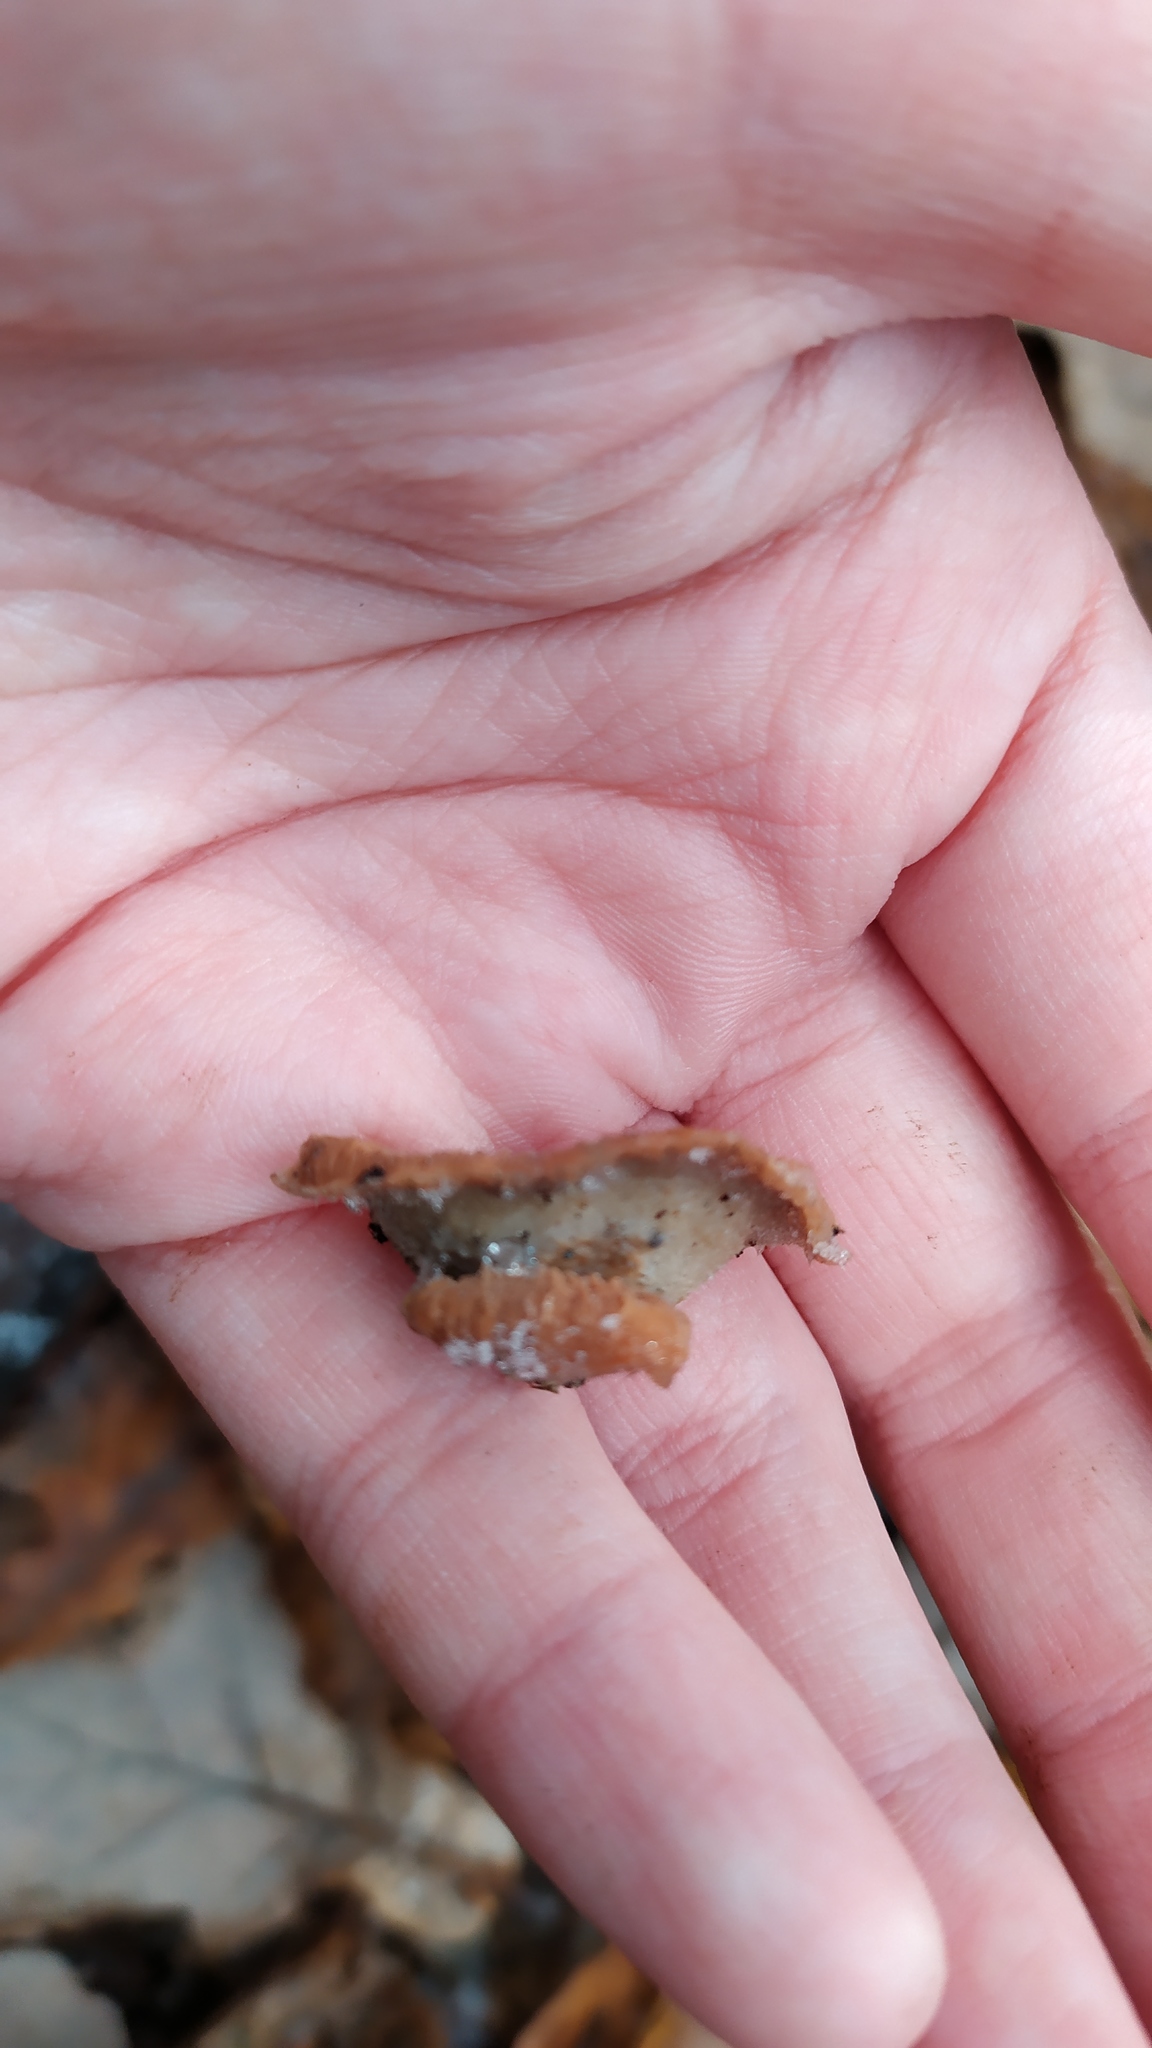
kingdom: Fungi
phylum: Basidiomycota
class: Agaricomycetes
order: Polyporales
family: Meruliaceae
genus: Phlebia
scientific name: Phlebia tremellosa
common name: Jelly rot
